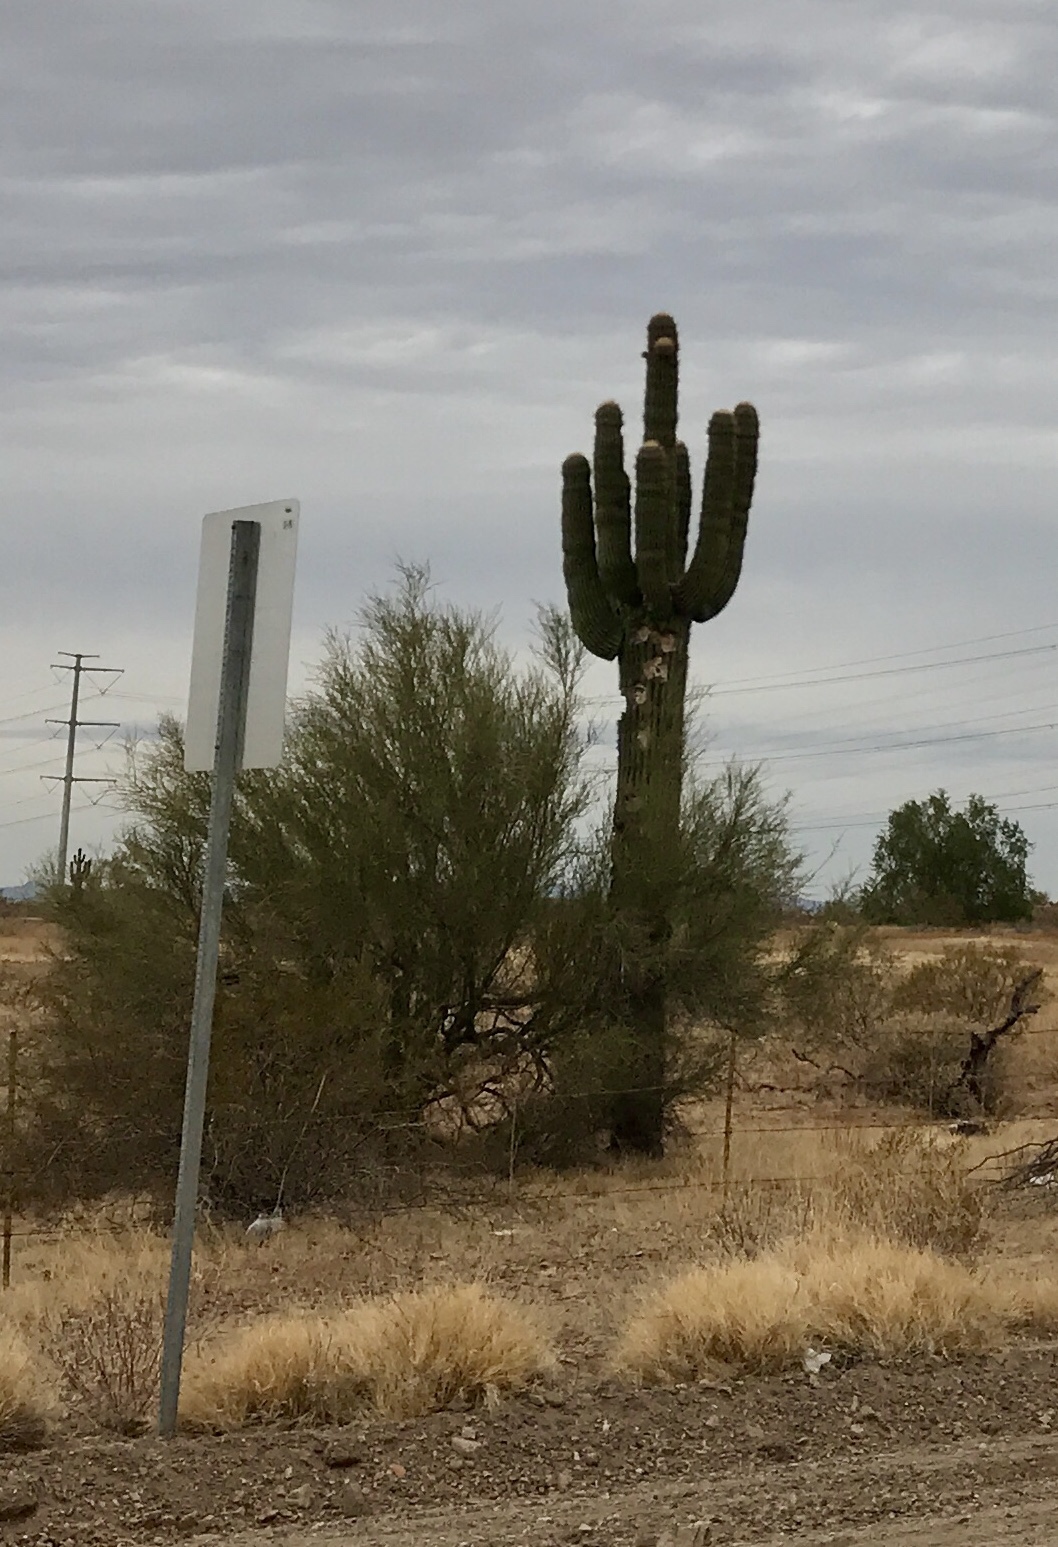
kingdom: Plantae
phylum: Tracheophyta
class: Magnoliopsida
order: Caryophyllales
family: Cactaceae
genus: Carnegiea
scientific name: Carnegiea gigantea
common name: Saguaro
